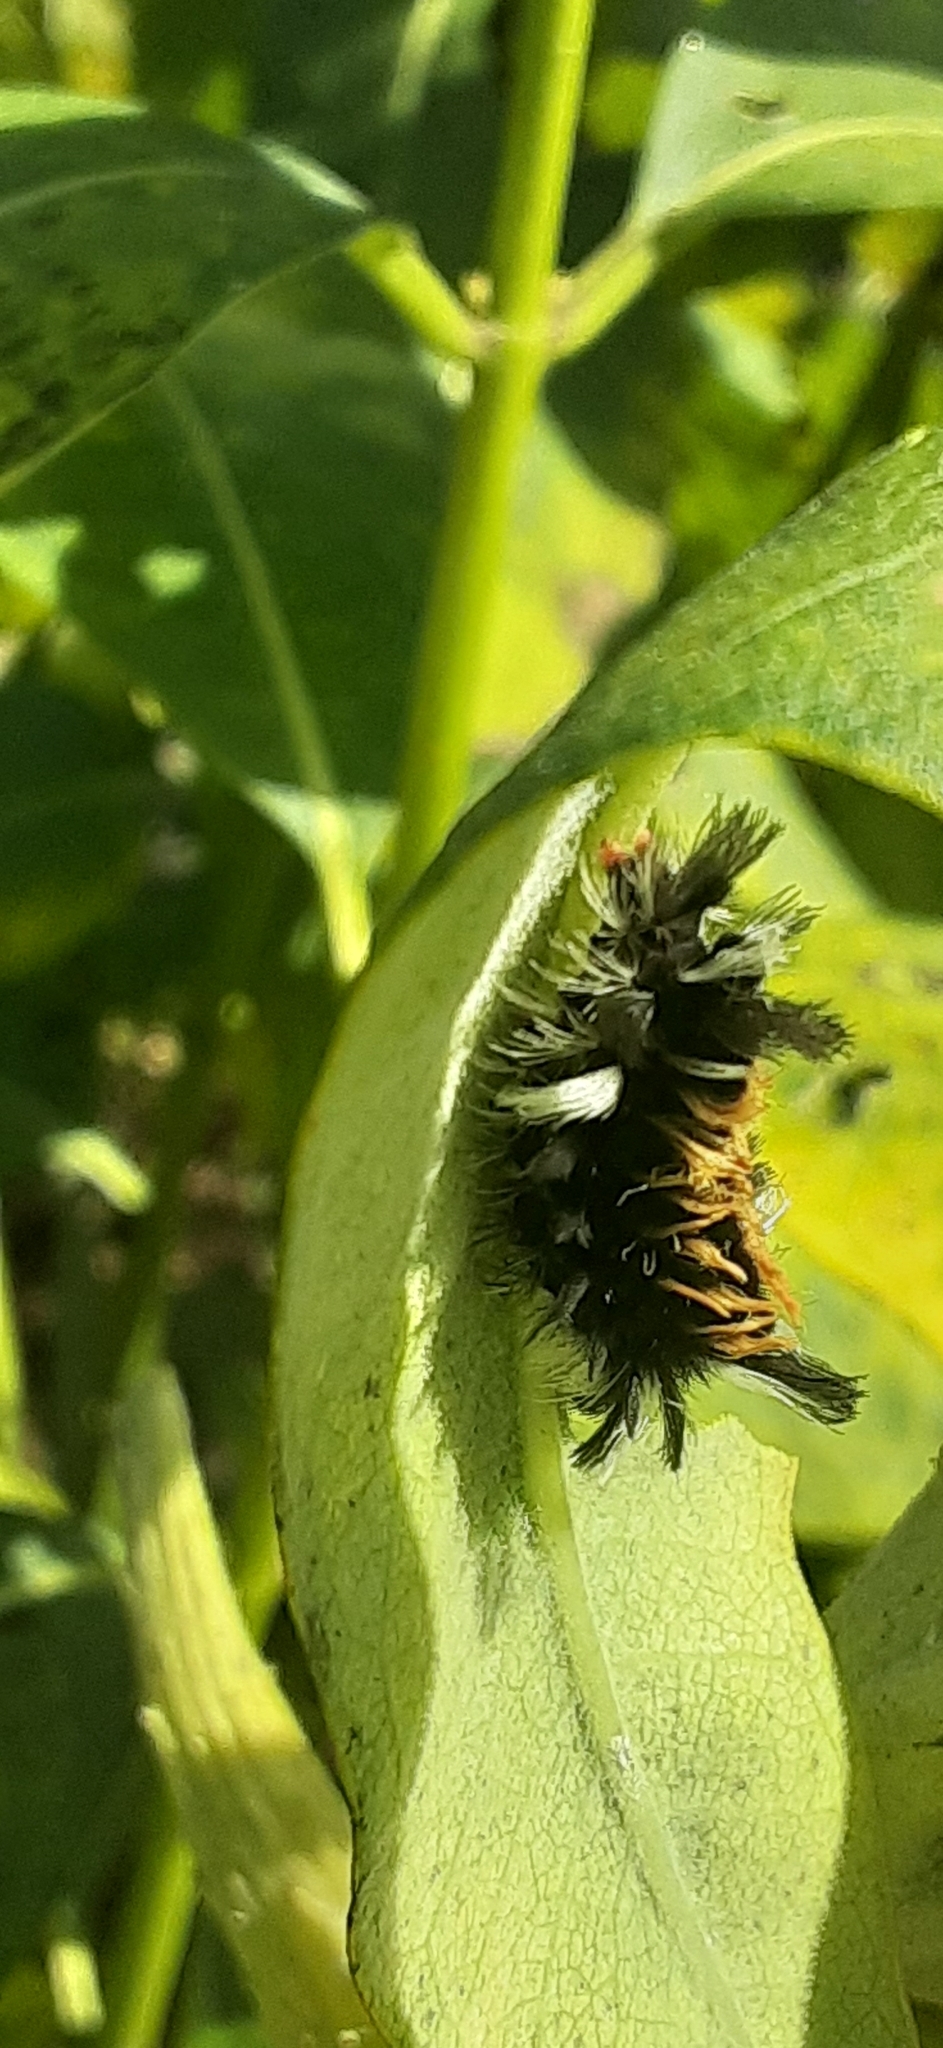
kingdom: Animalia
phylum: Arthropoda
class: Insecta
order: Lepidoptera
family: Erebidae
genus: Euchaetes
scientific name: Euchaetes egle
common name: Milkweed tussock moth
